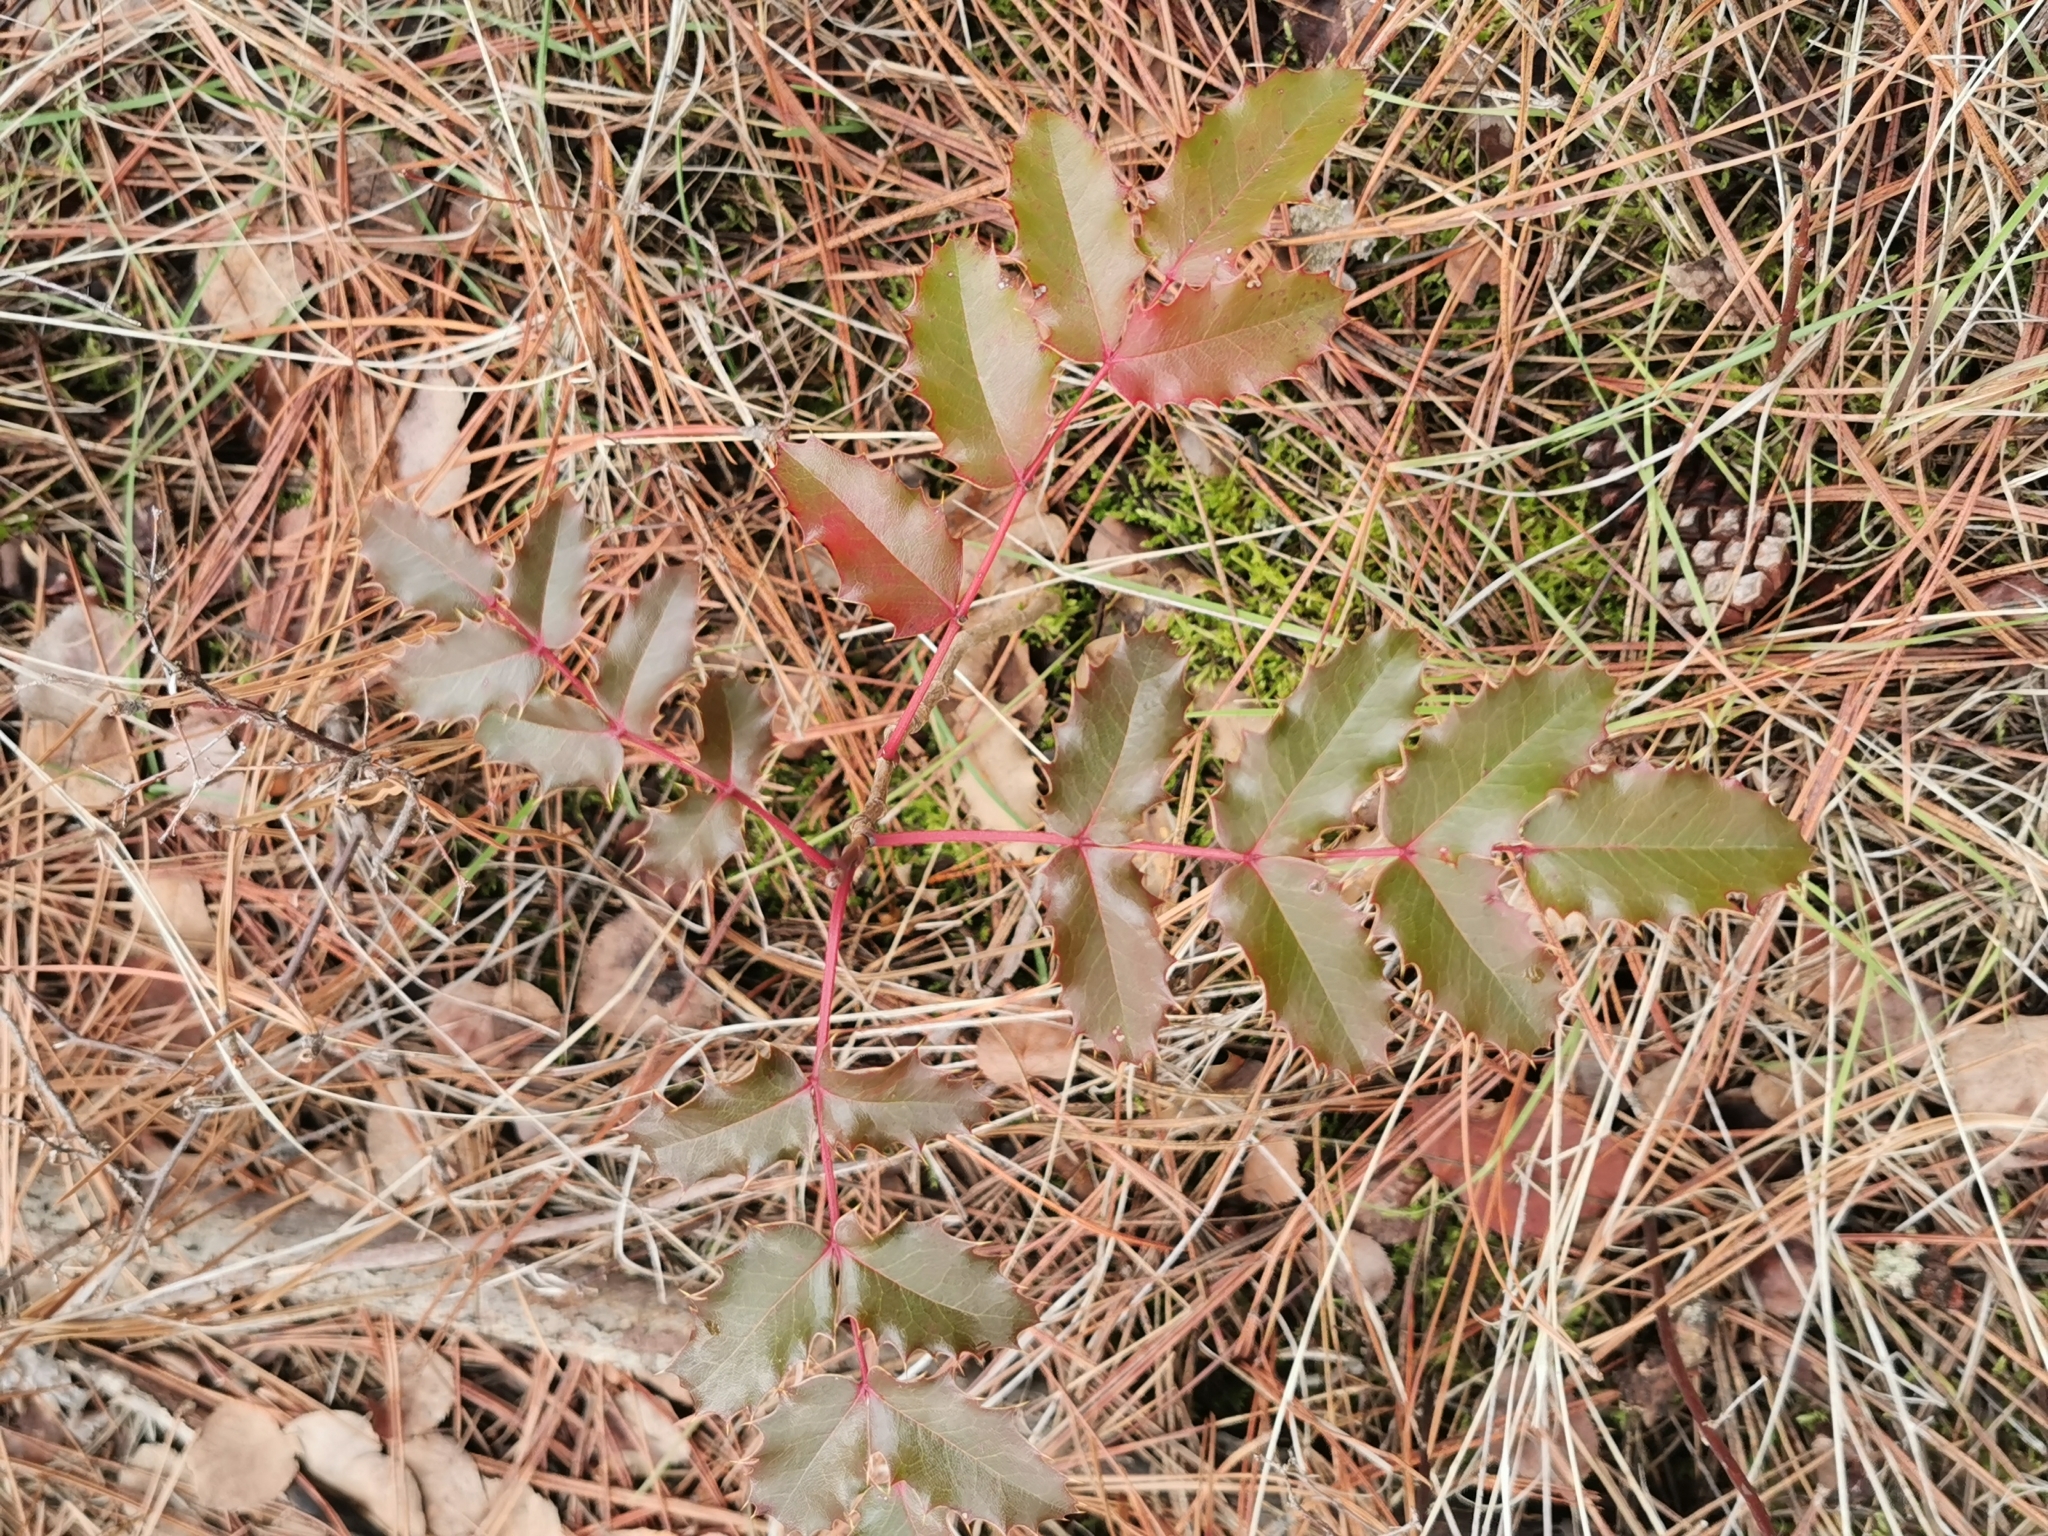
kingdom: Plantae
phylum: Tracheophyta
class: Magnoliopsida
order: Ranunculales
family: Berberidaceae
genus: Mahonia
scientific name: Mahonia aquifolium
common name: Oregon-grape
